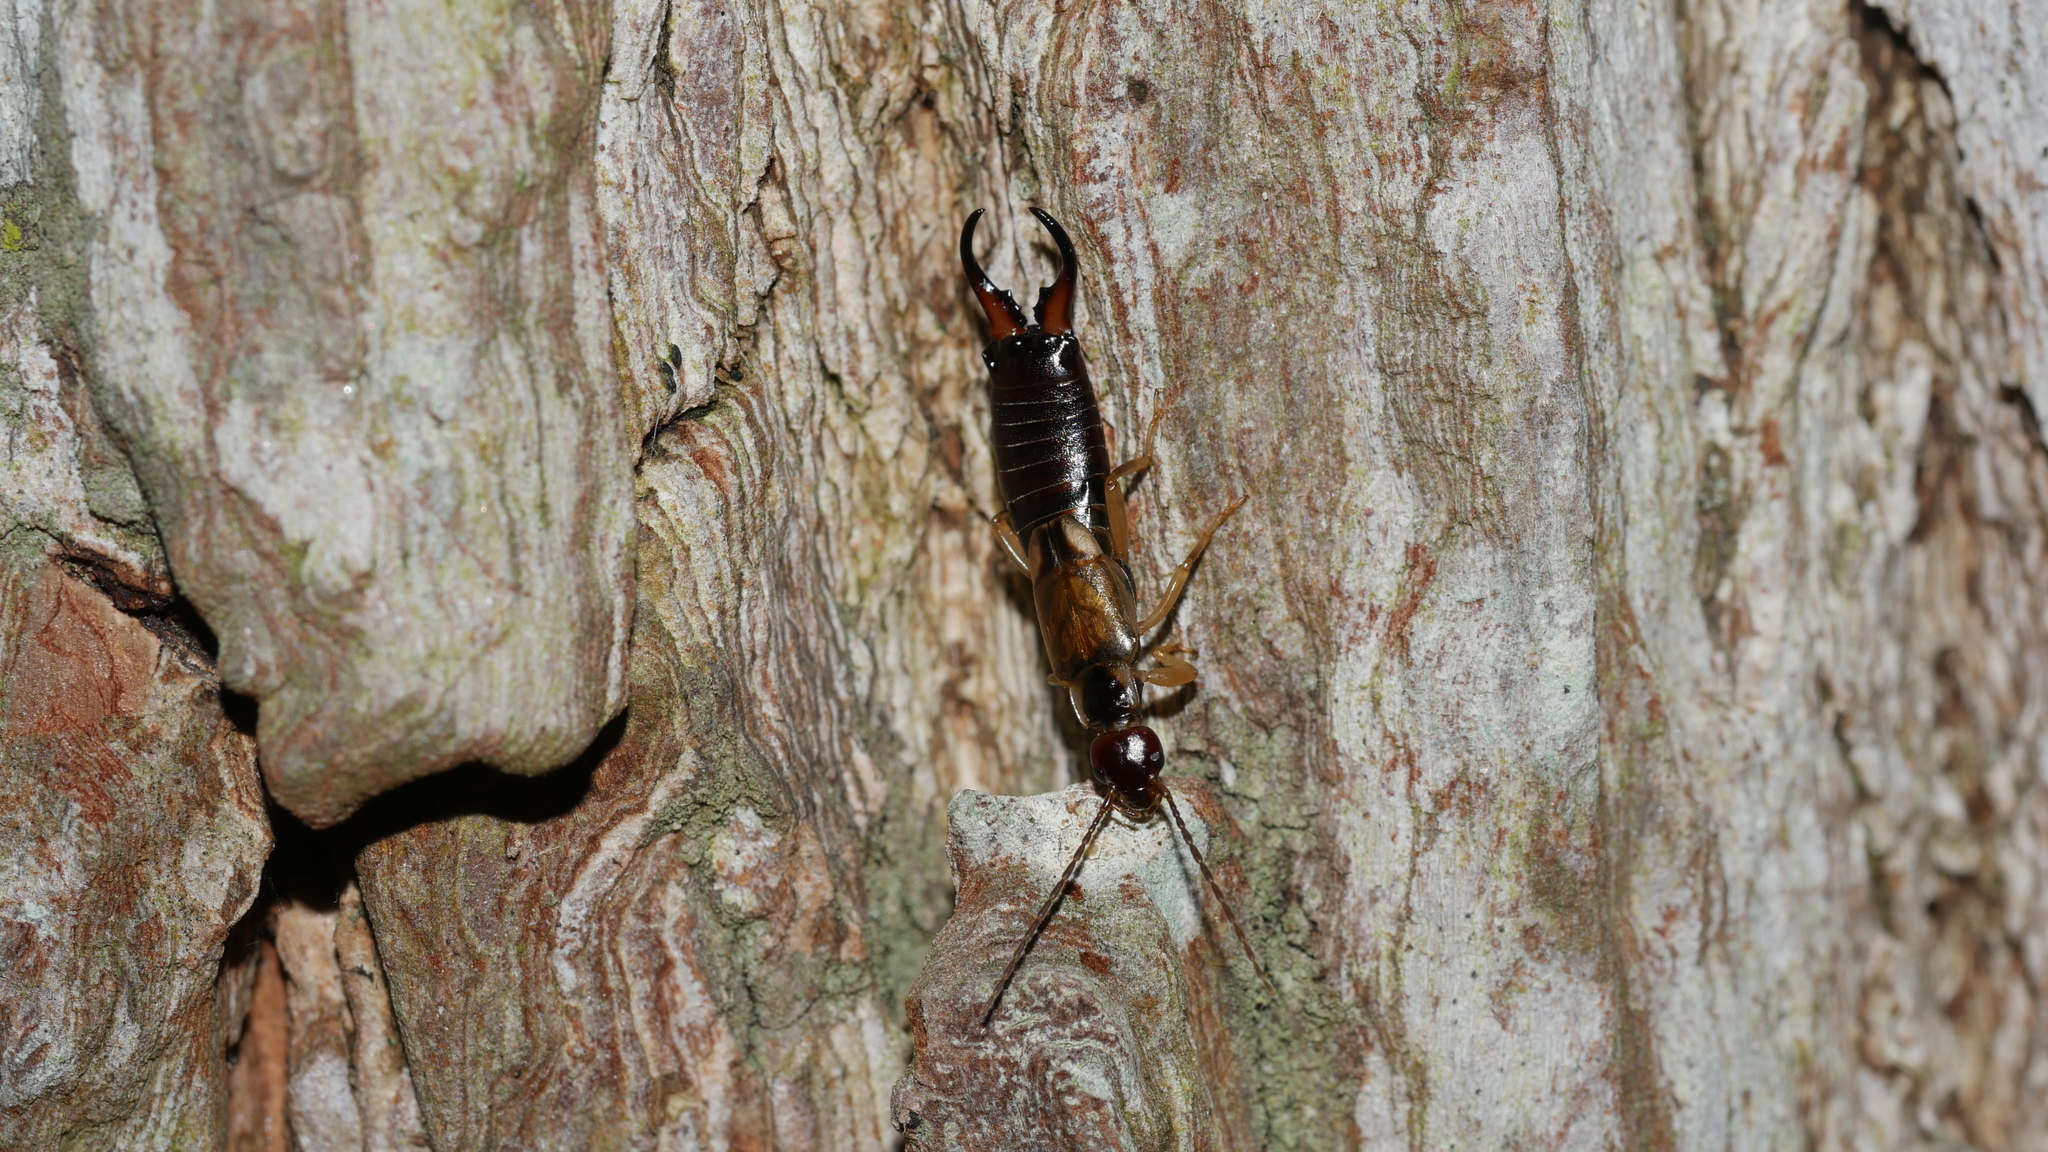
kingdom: Animalia
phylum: Arthropoda
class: Insecta
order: Dermaptera
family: Forficulidae
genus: Forficula
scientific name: Forficula
